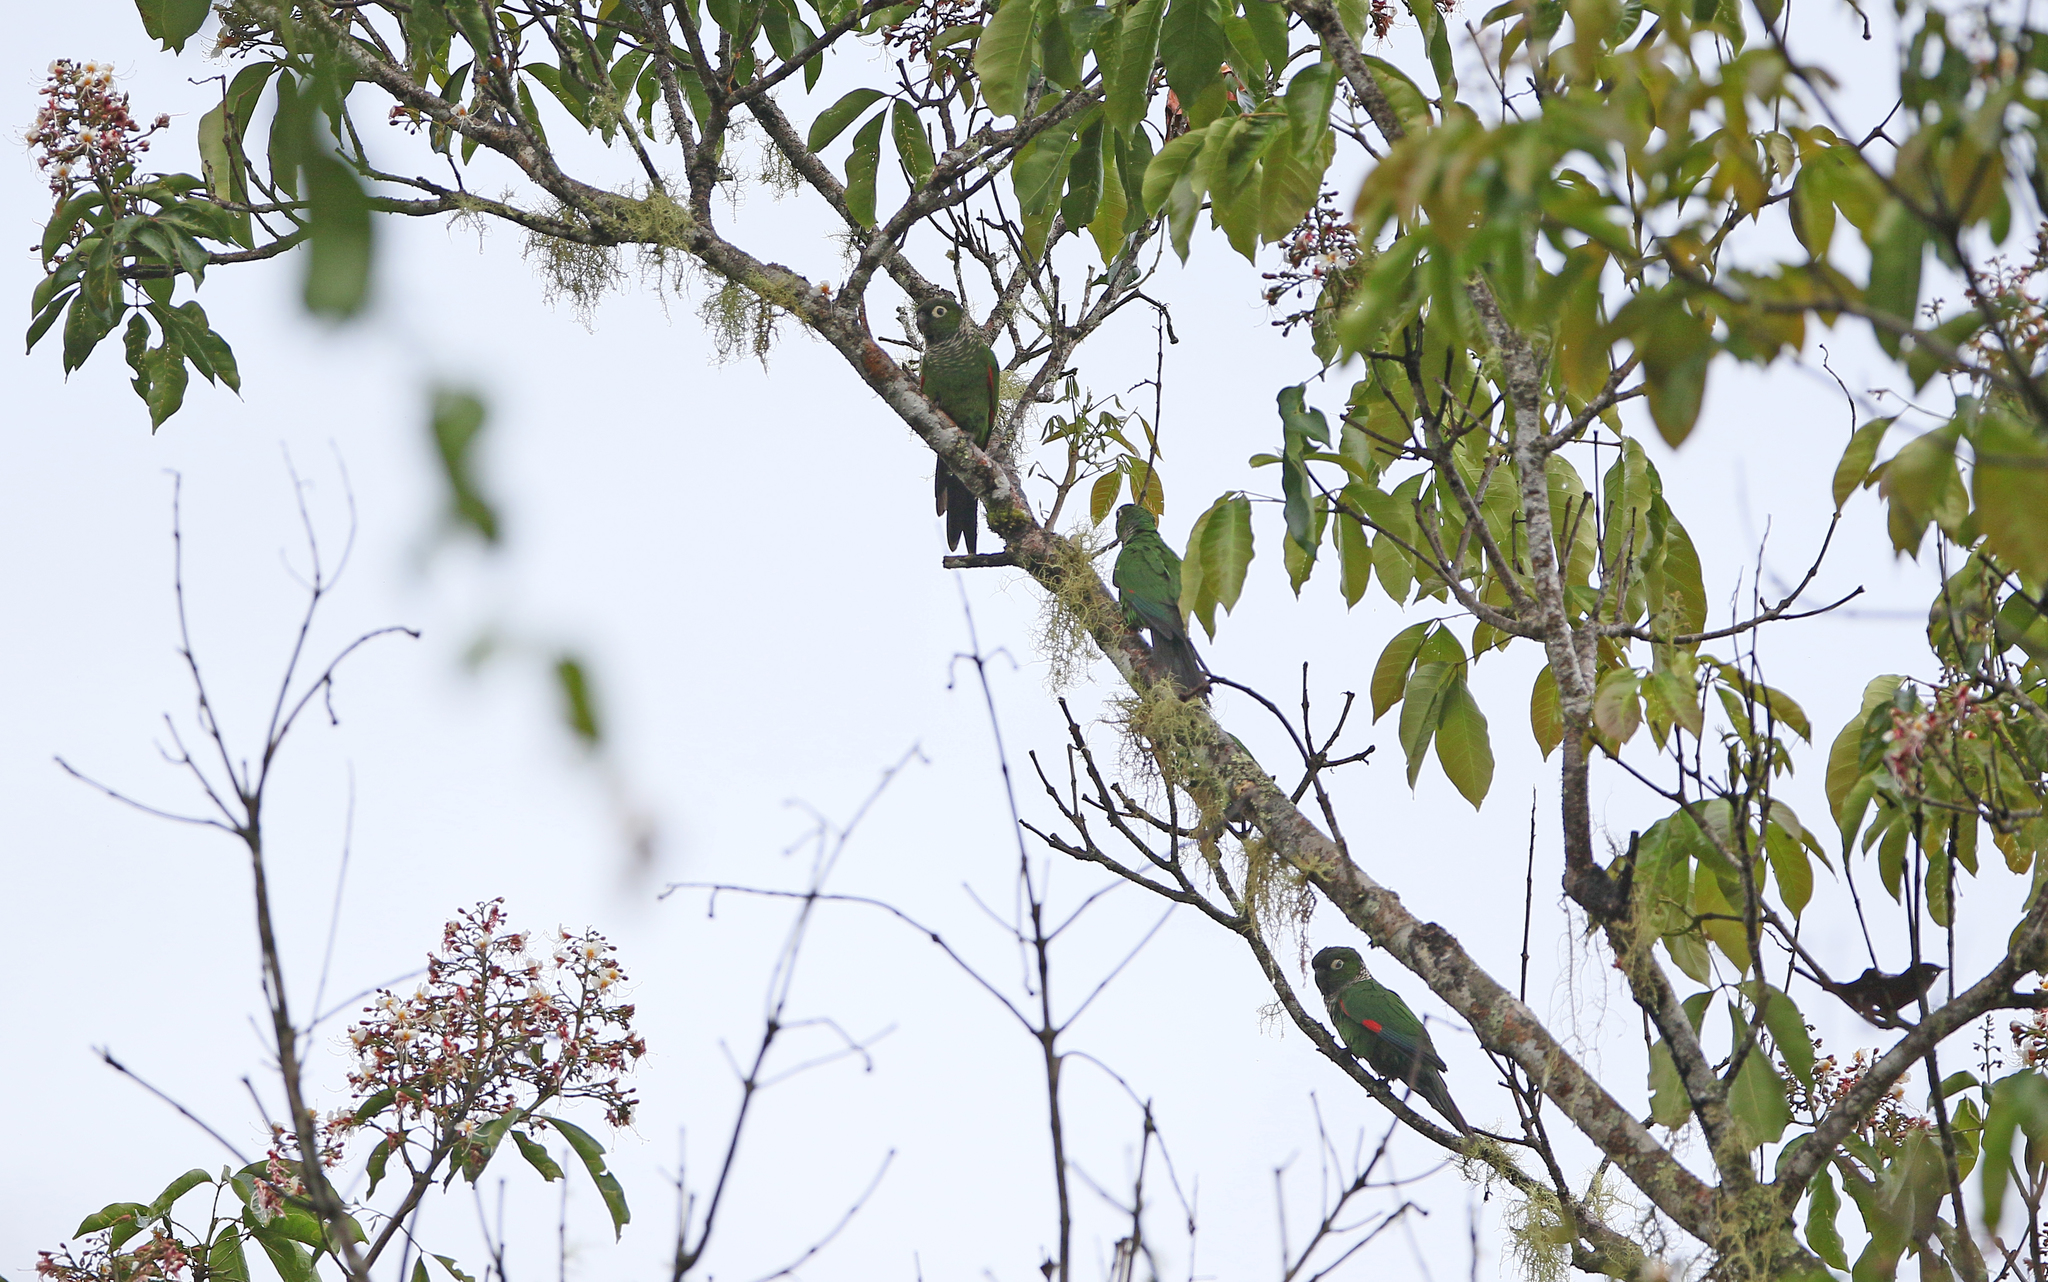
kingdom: Animalia
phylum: Chordata
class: Aves
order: Psittaciformes
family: Psittacidae
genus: Pyrrhura
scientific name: Pyrrhura melanura
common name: Maroon-tailed parakeet
